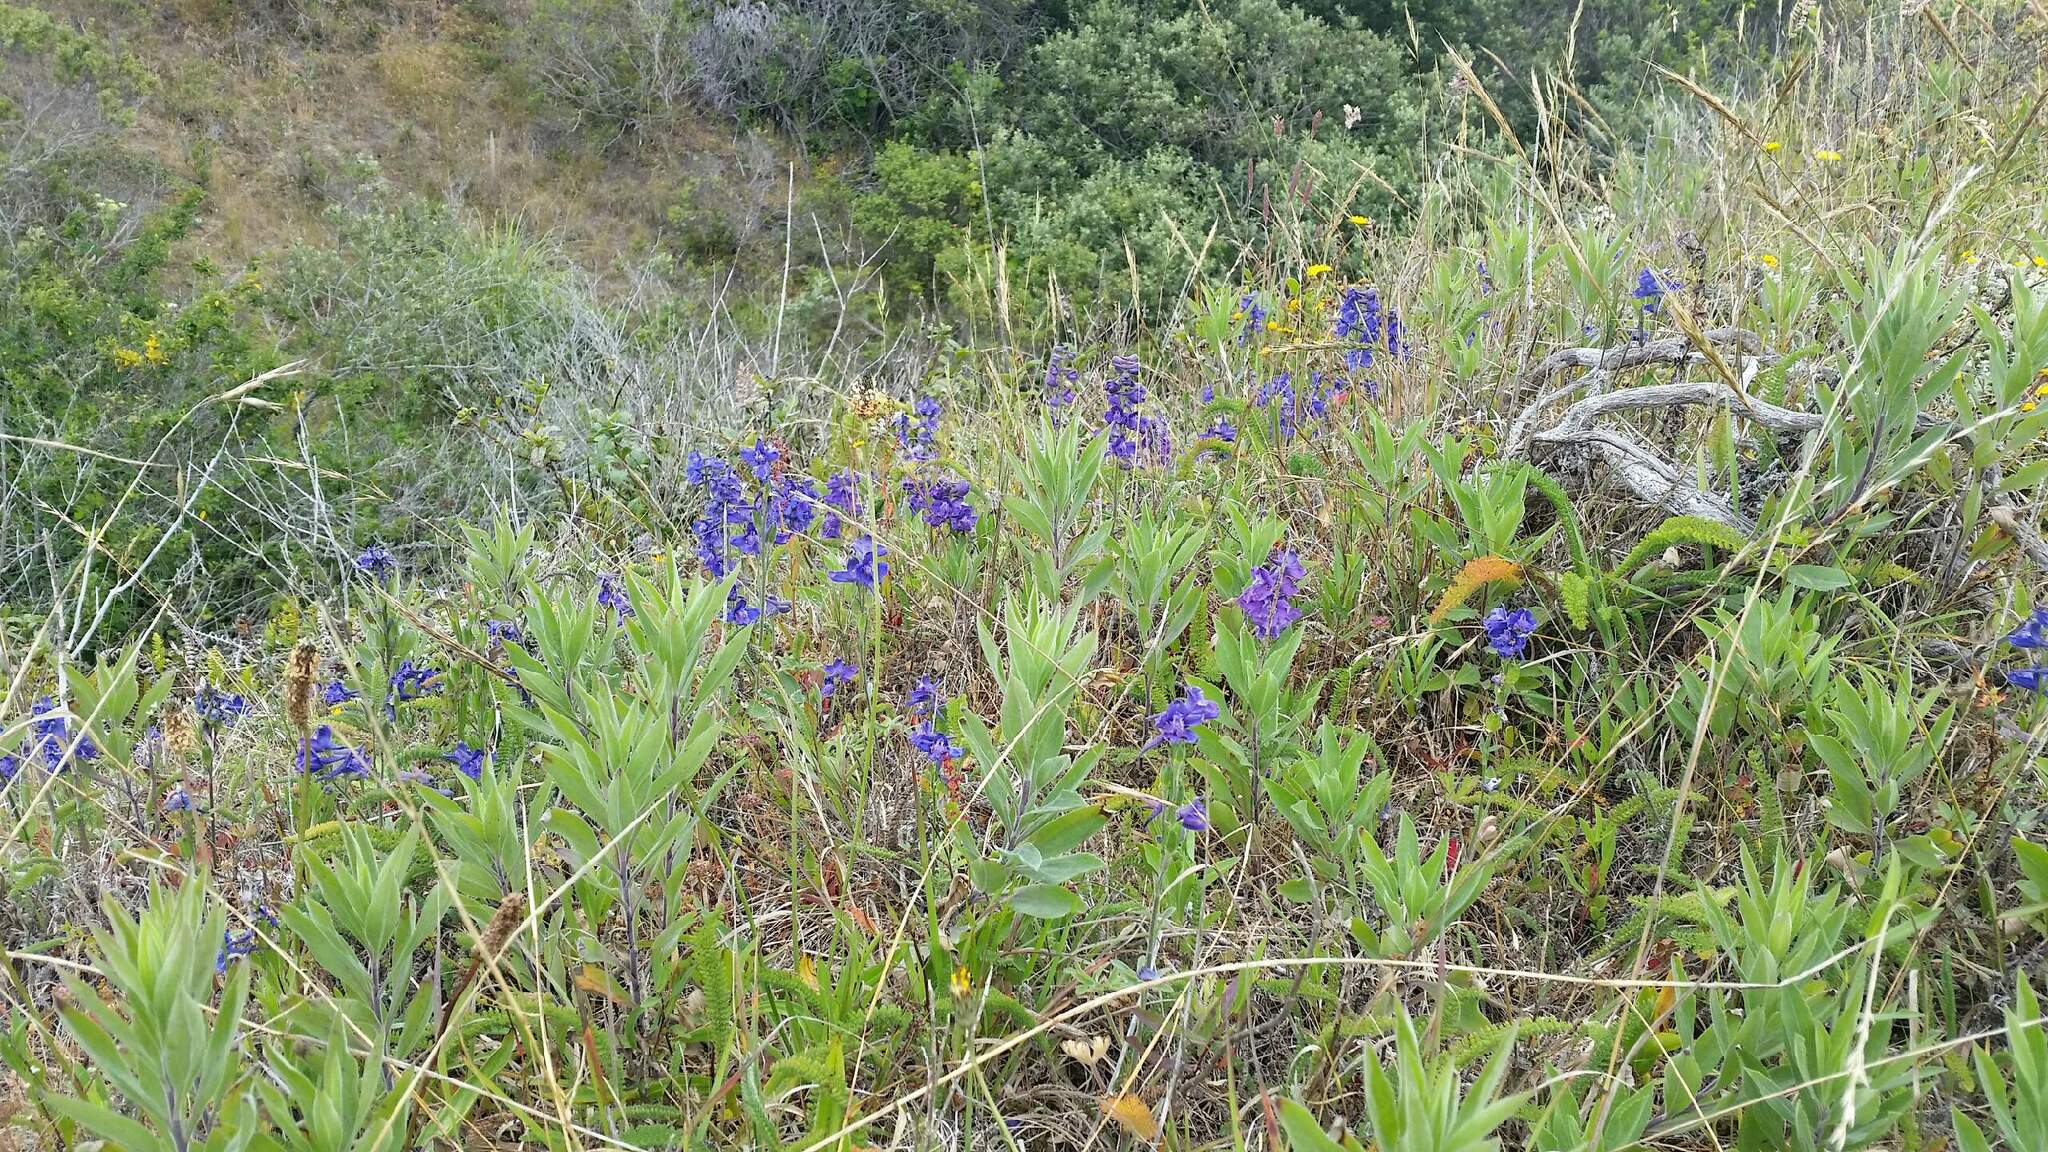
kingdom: Plantae
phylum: Tracheophyta
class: Magnoliopsida
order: Ranunculales
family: Ranunculaceae
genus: Delphinium
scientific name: Delphinium hesperium
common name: Western larkspur
